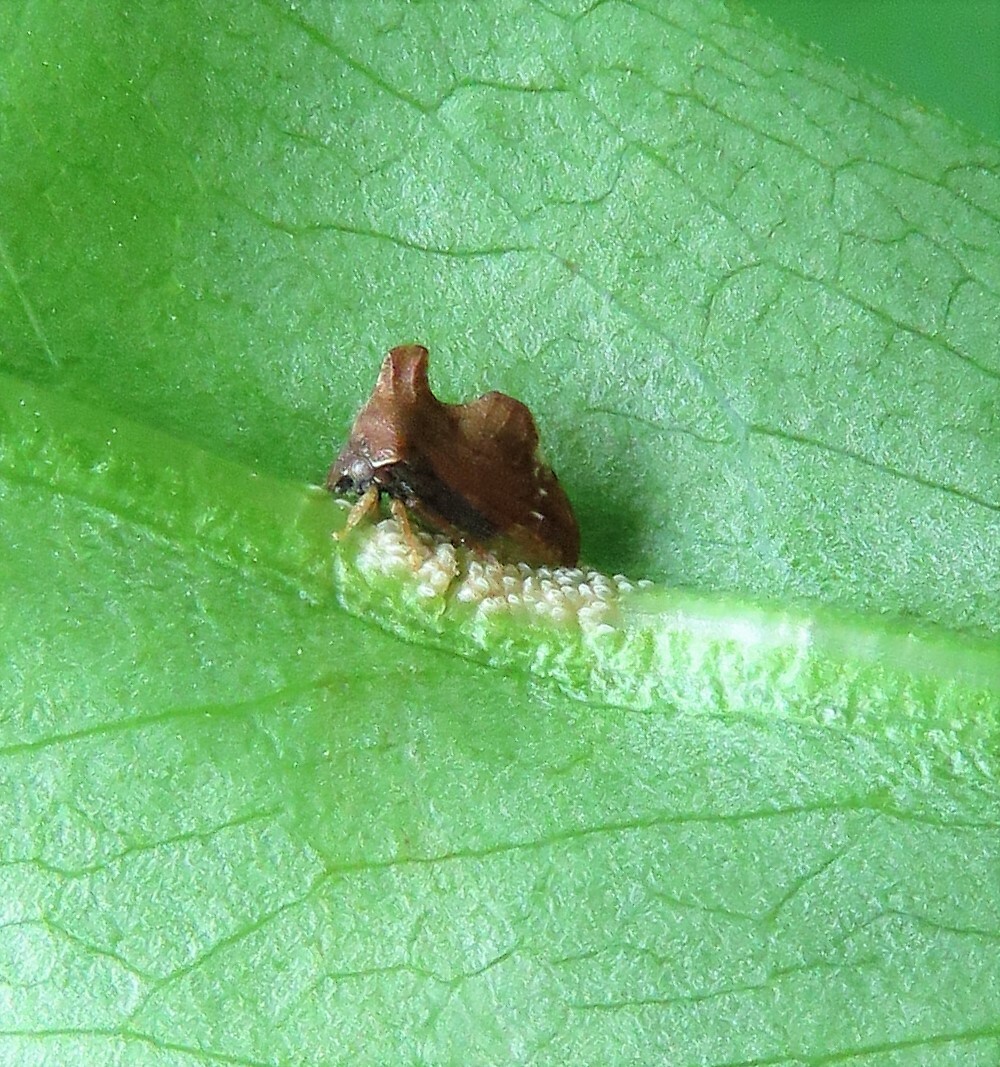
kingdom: Animalia
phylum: Arthropoda
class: Insecta
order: Hemiptera
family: Membracidae
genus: Entylia
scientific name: Entylia carinata
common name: Keeled treehopper
